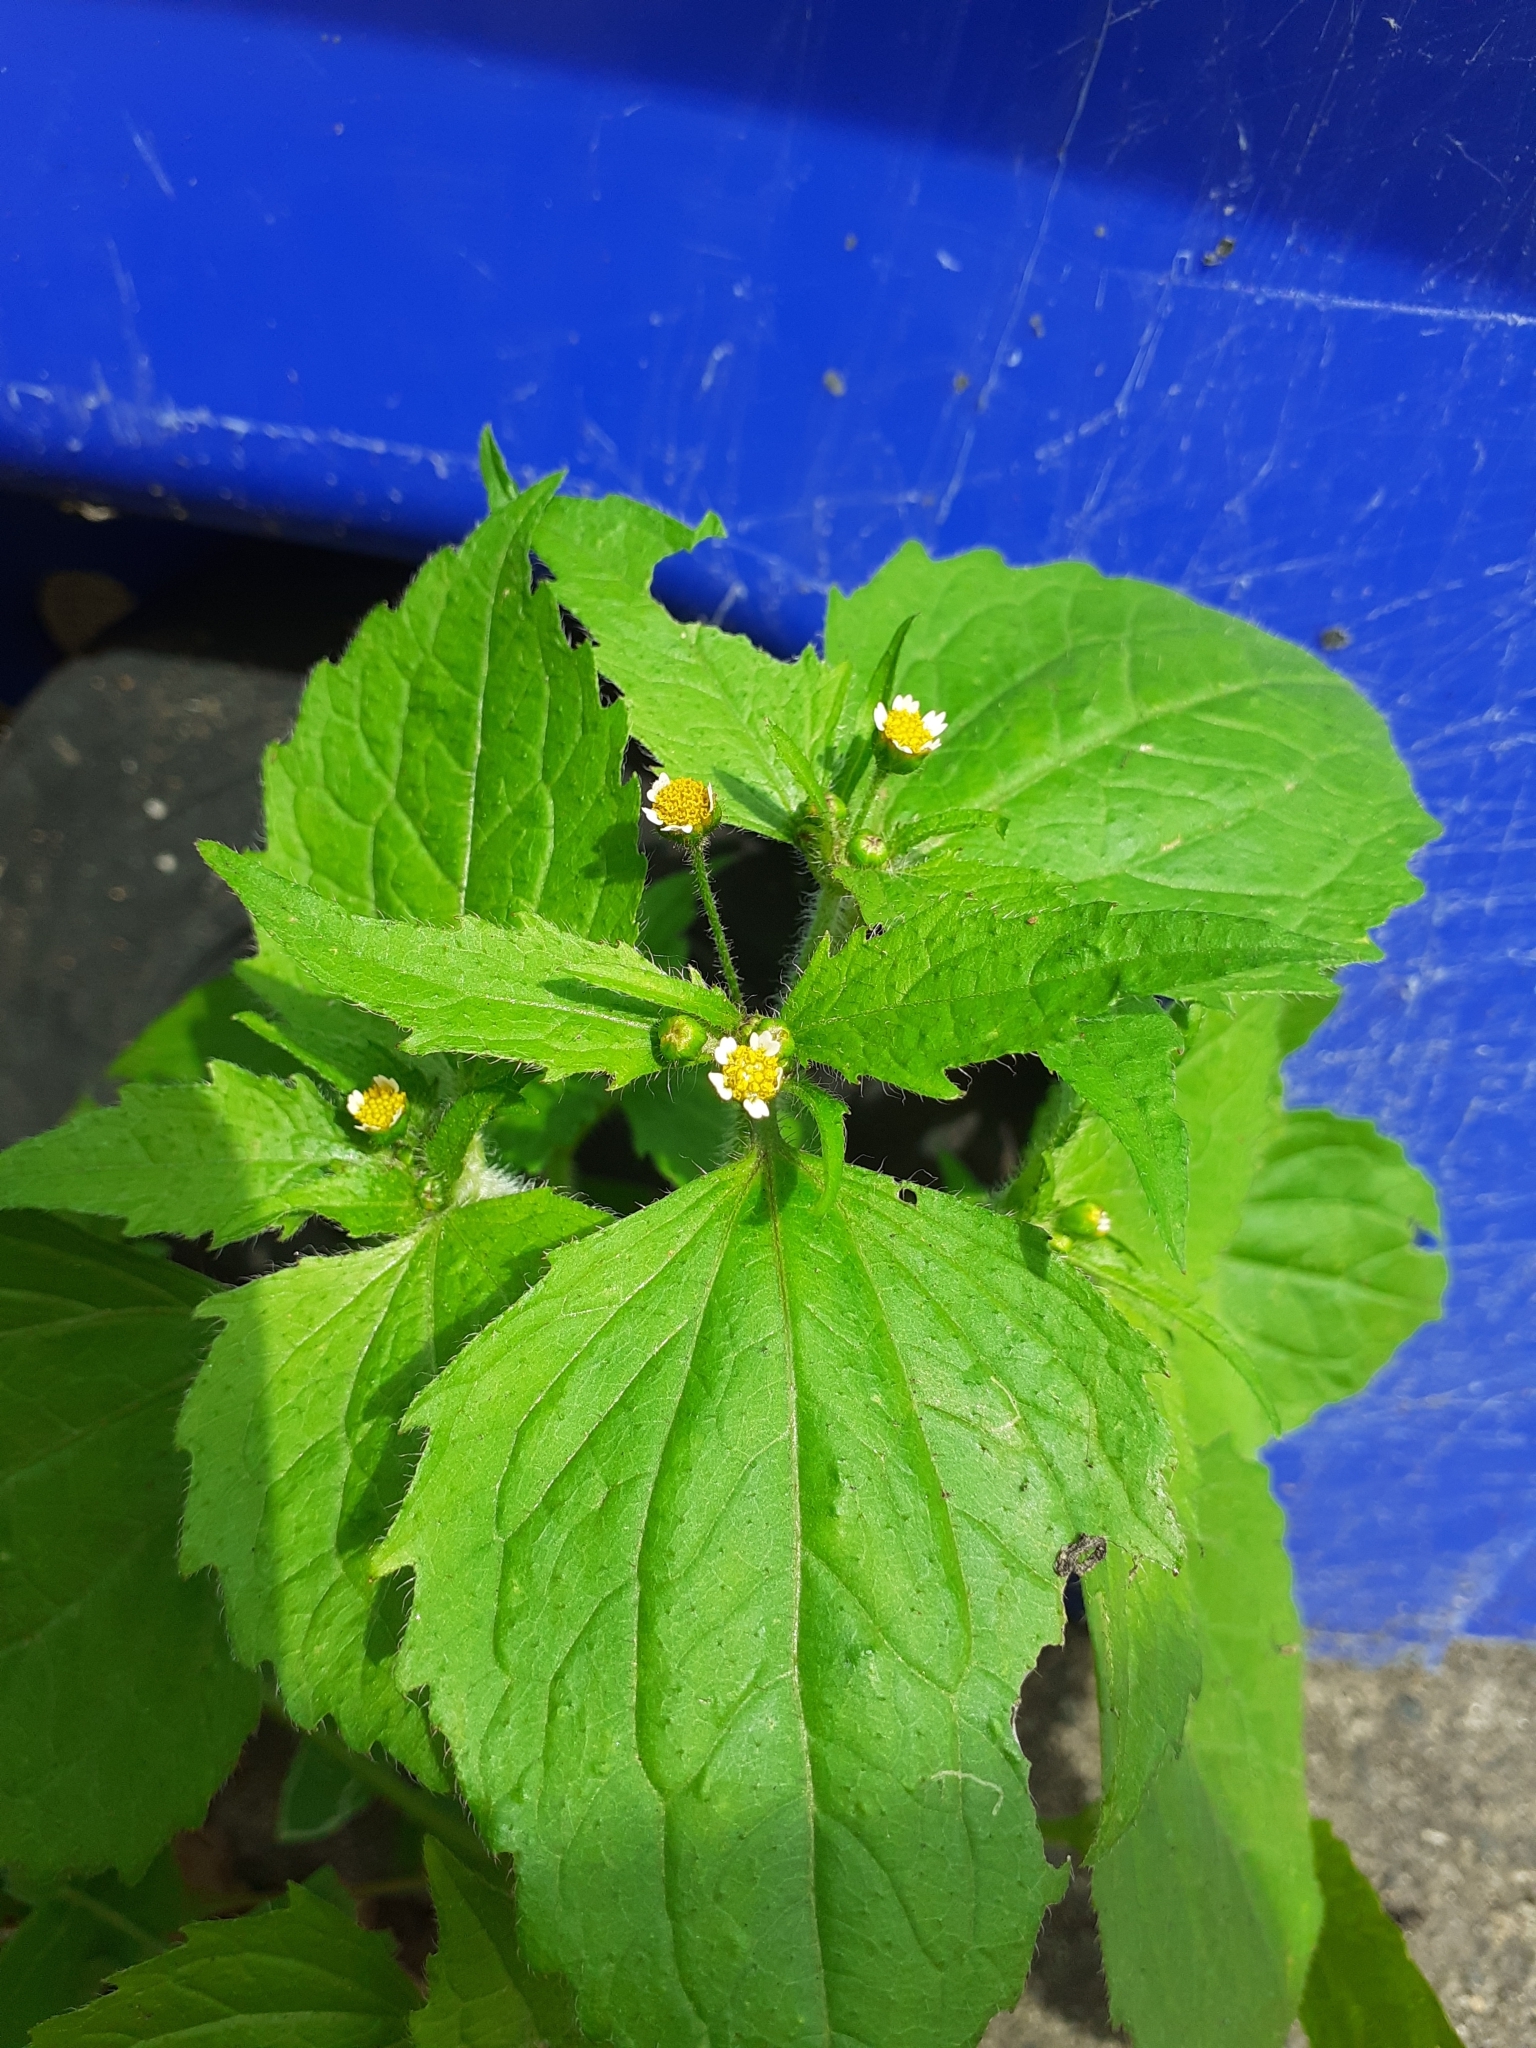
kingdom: Plantae
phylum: Tracheophyta
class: Magnoliopsida
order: Asterales
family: Asteraceae
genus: Galinsoga
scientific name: Galinsoga quadriradiata
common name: Shaggy soldier
